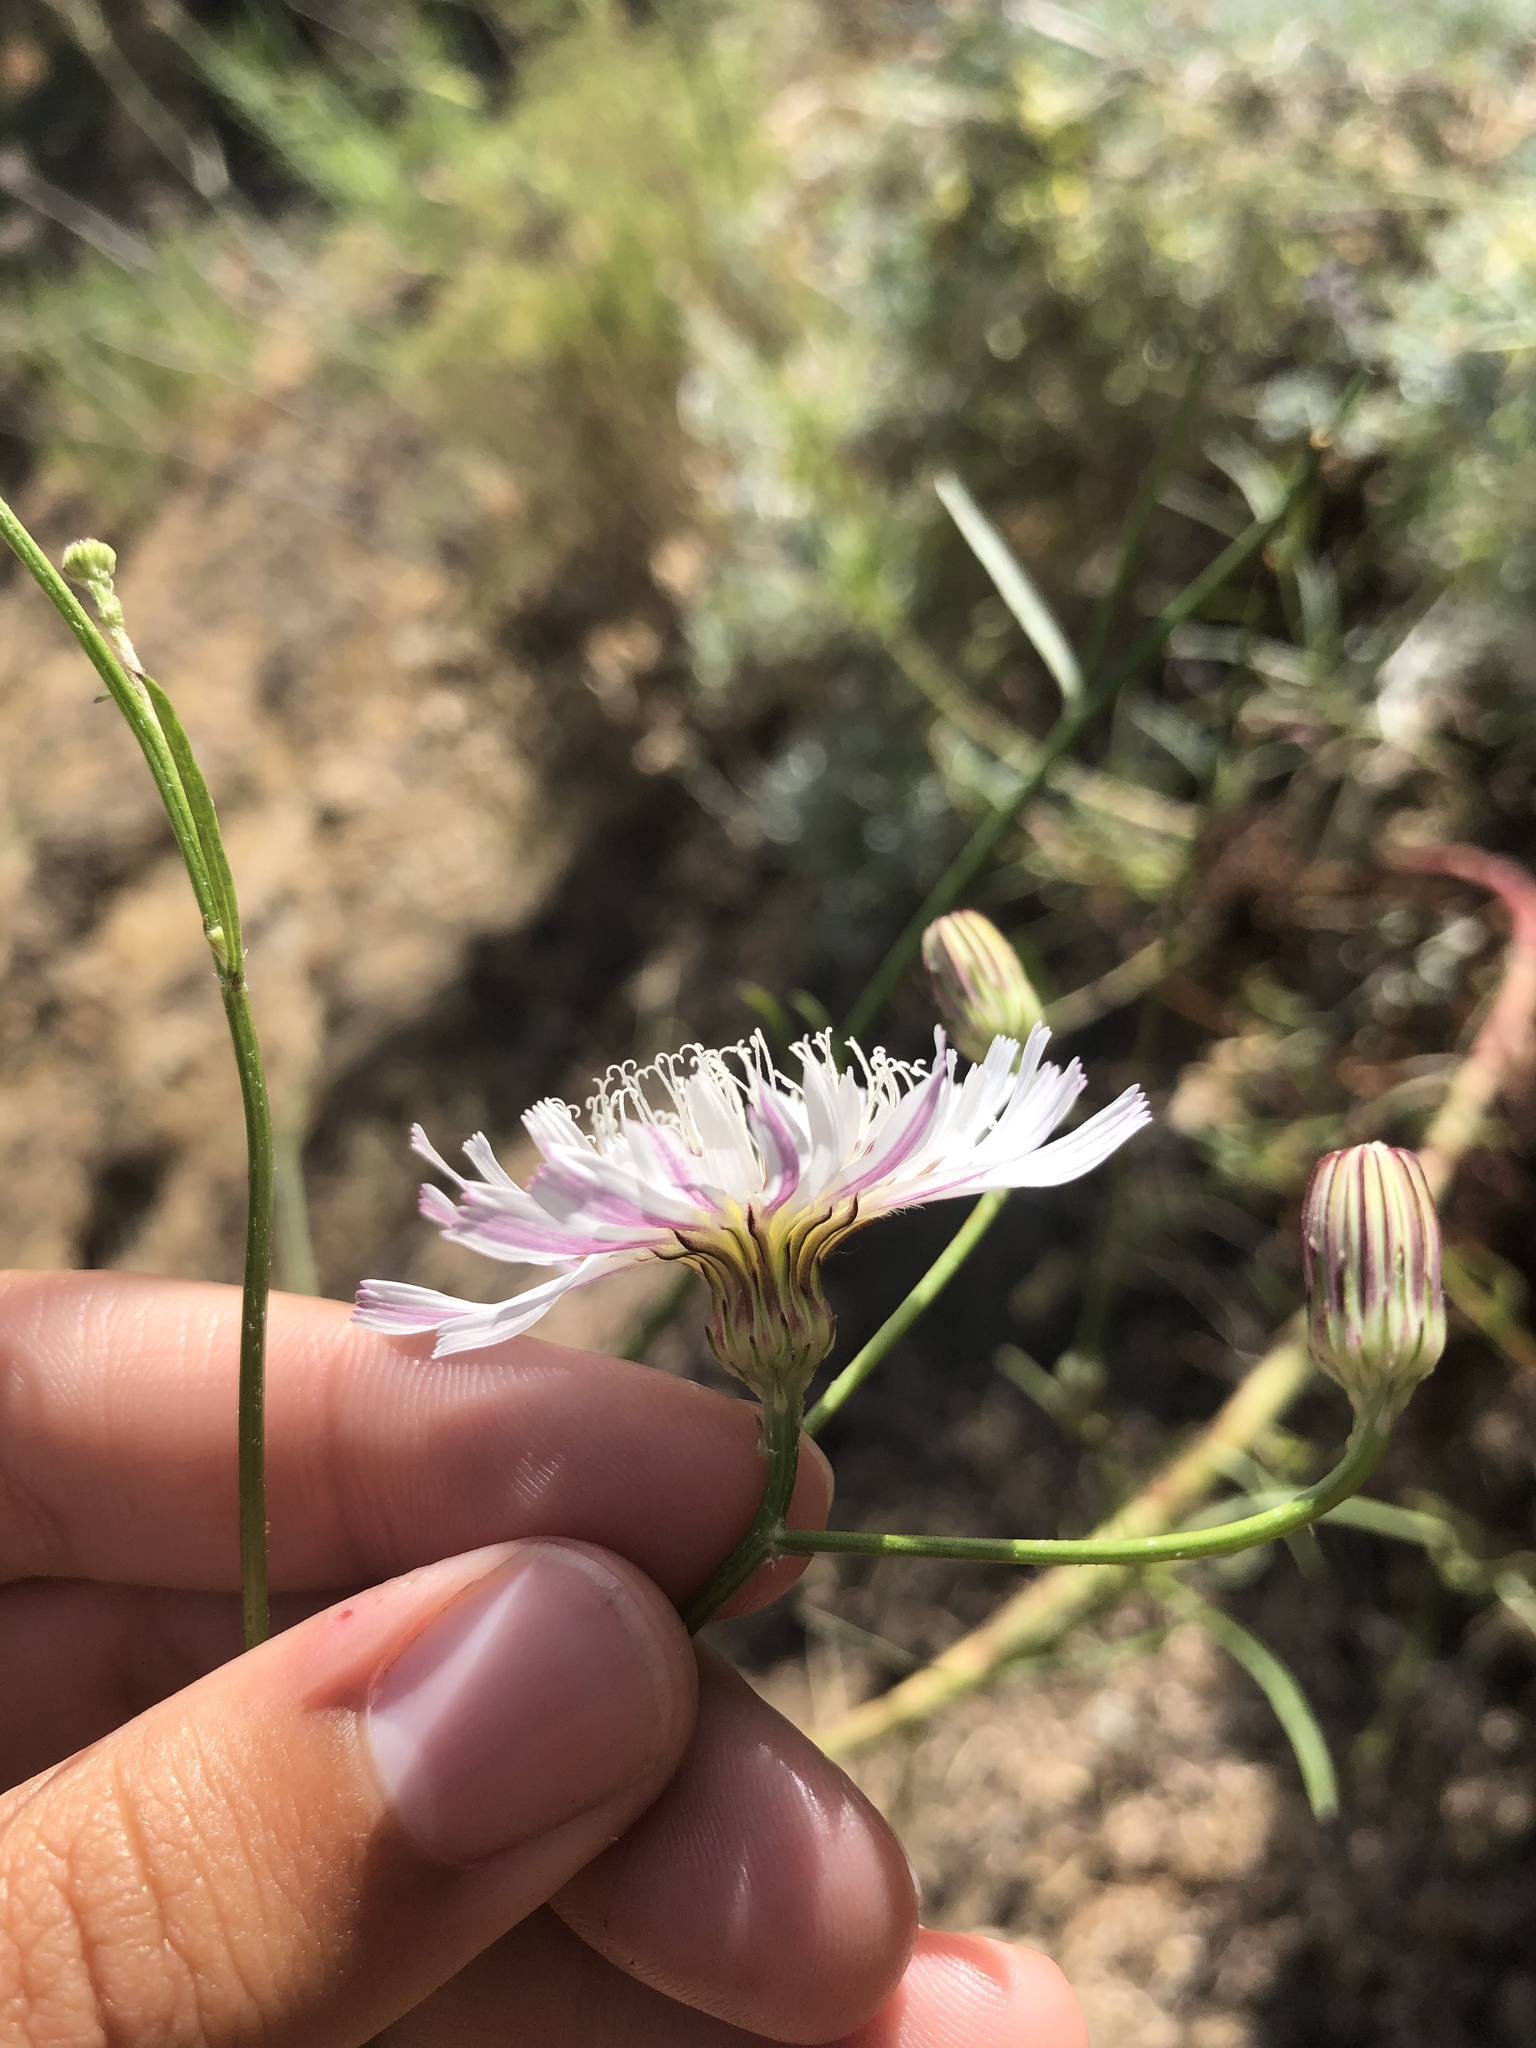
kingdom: Plantae
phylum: Tracheophyta
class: Magnoliopsida
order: Asterales
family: Asteraceae
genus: Malacothrix
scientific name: Malacothrix saxatilis
